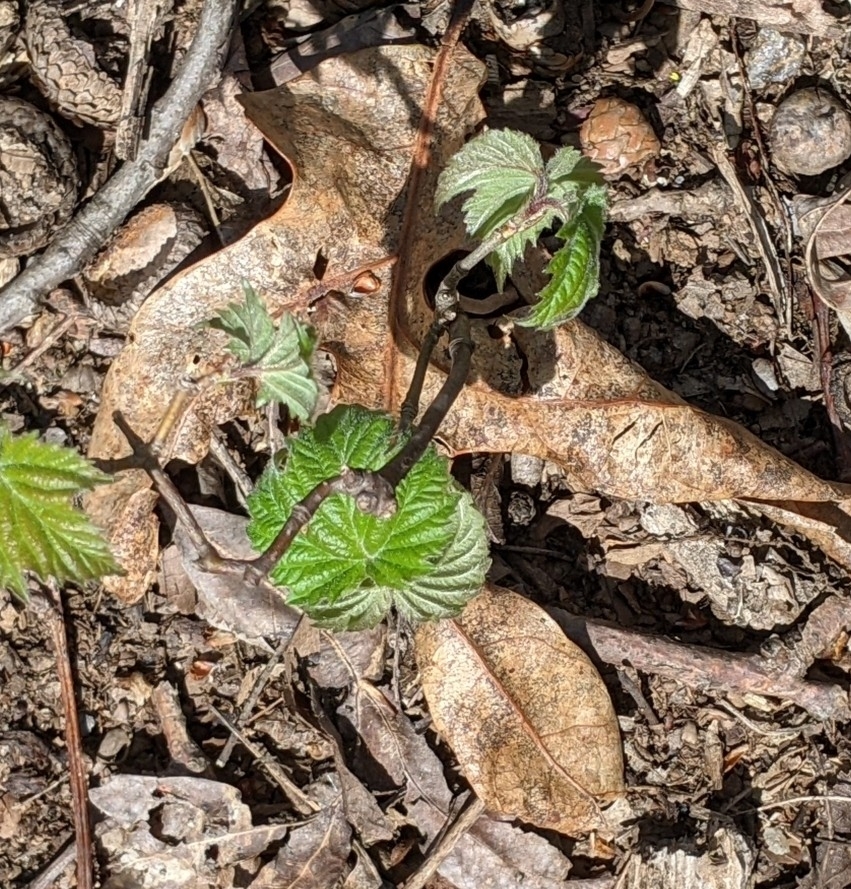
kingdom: Plantae
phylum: Tracheophyta
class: Magnoliopsida
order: Dipsacales
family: Viburnaceae
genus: Viburnum
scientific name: Viburnum acerifolium
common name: Dockmackie
